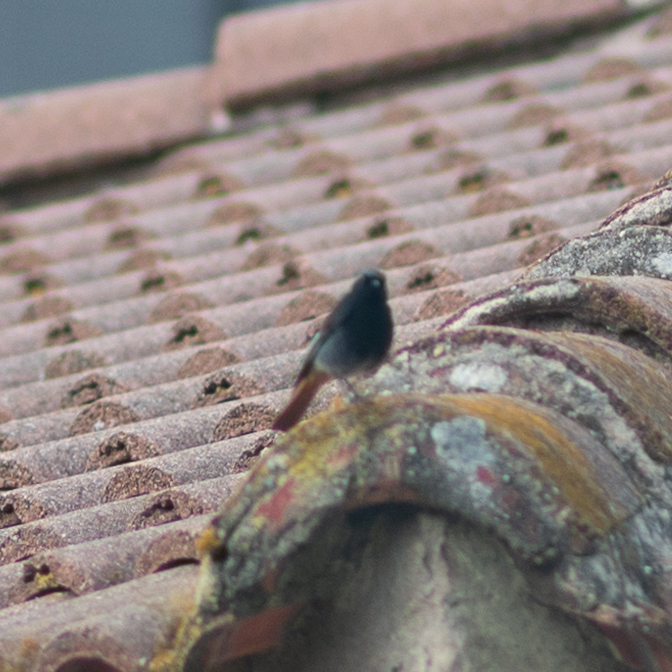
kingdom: Animalia
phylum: Chordata
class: Aves
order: Passeriformes
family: Muscicapidae
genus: Phoenicurus
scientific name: Phoenicurus ochruros
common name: Black redstart
